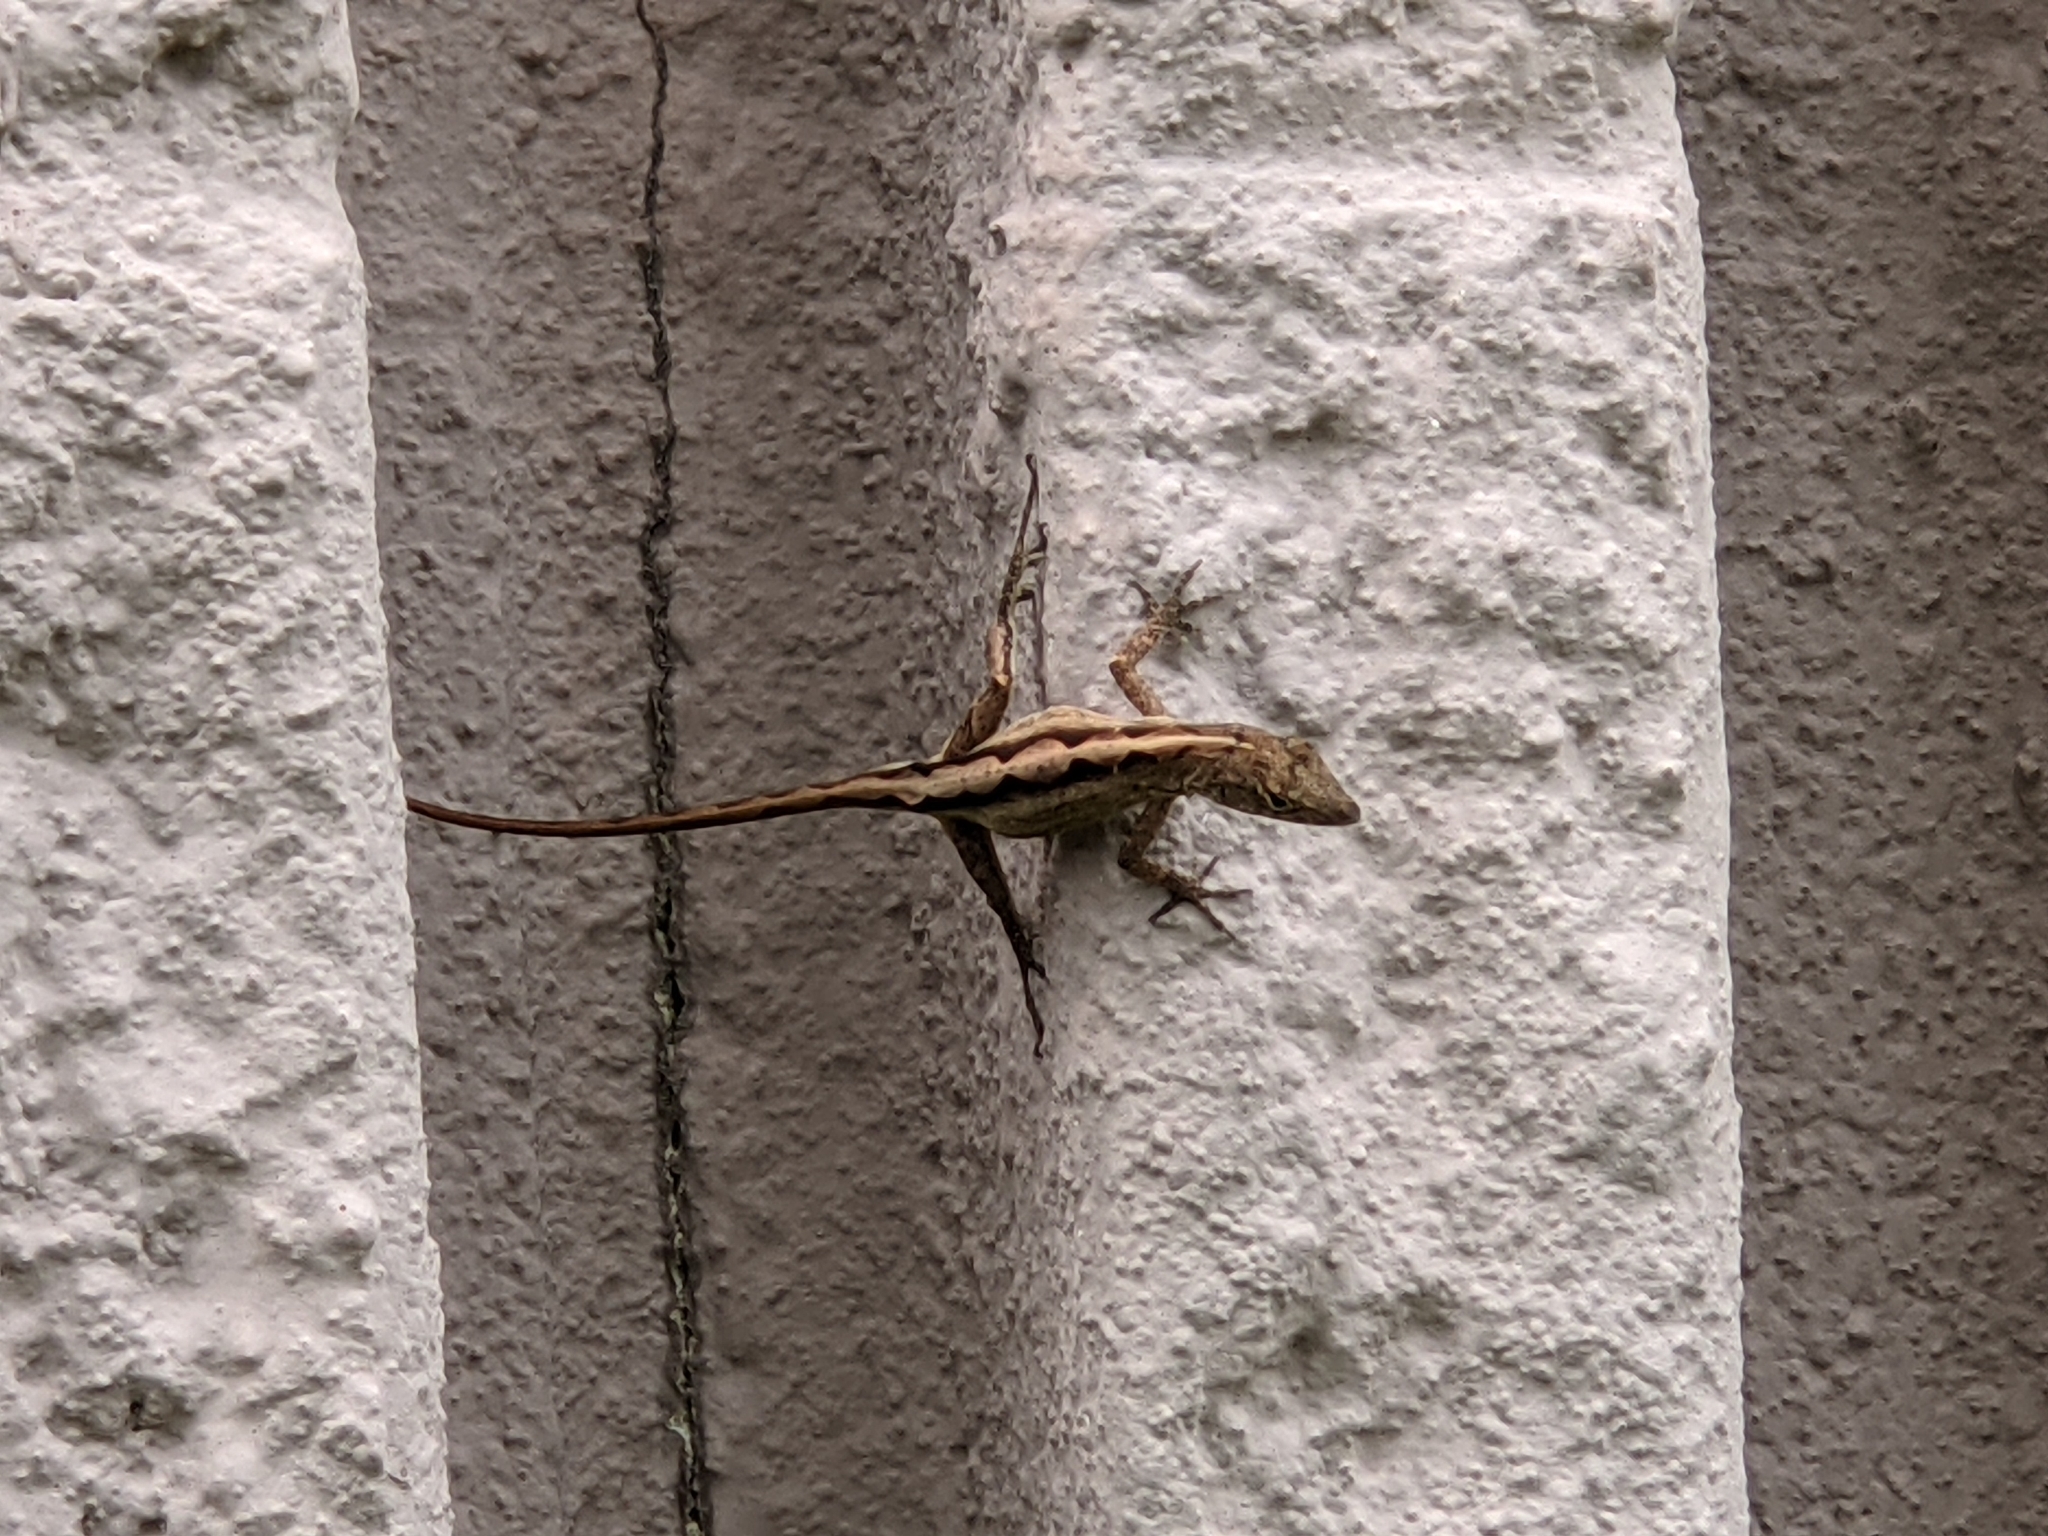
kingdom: Animalia
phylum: Chordata
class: Squamata
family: Dactyloidae
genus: Anolis
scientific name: Anolis sagrei
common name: Brown anole
